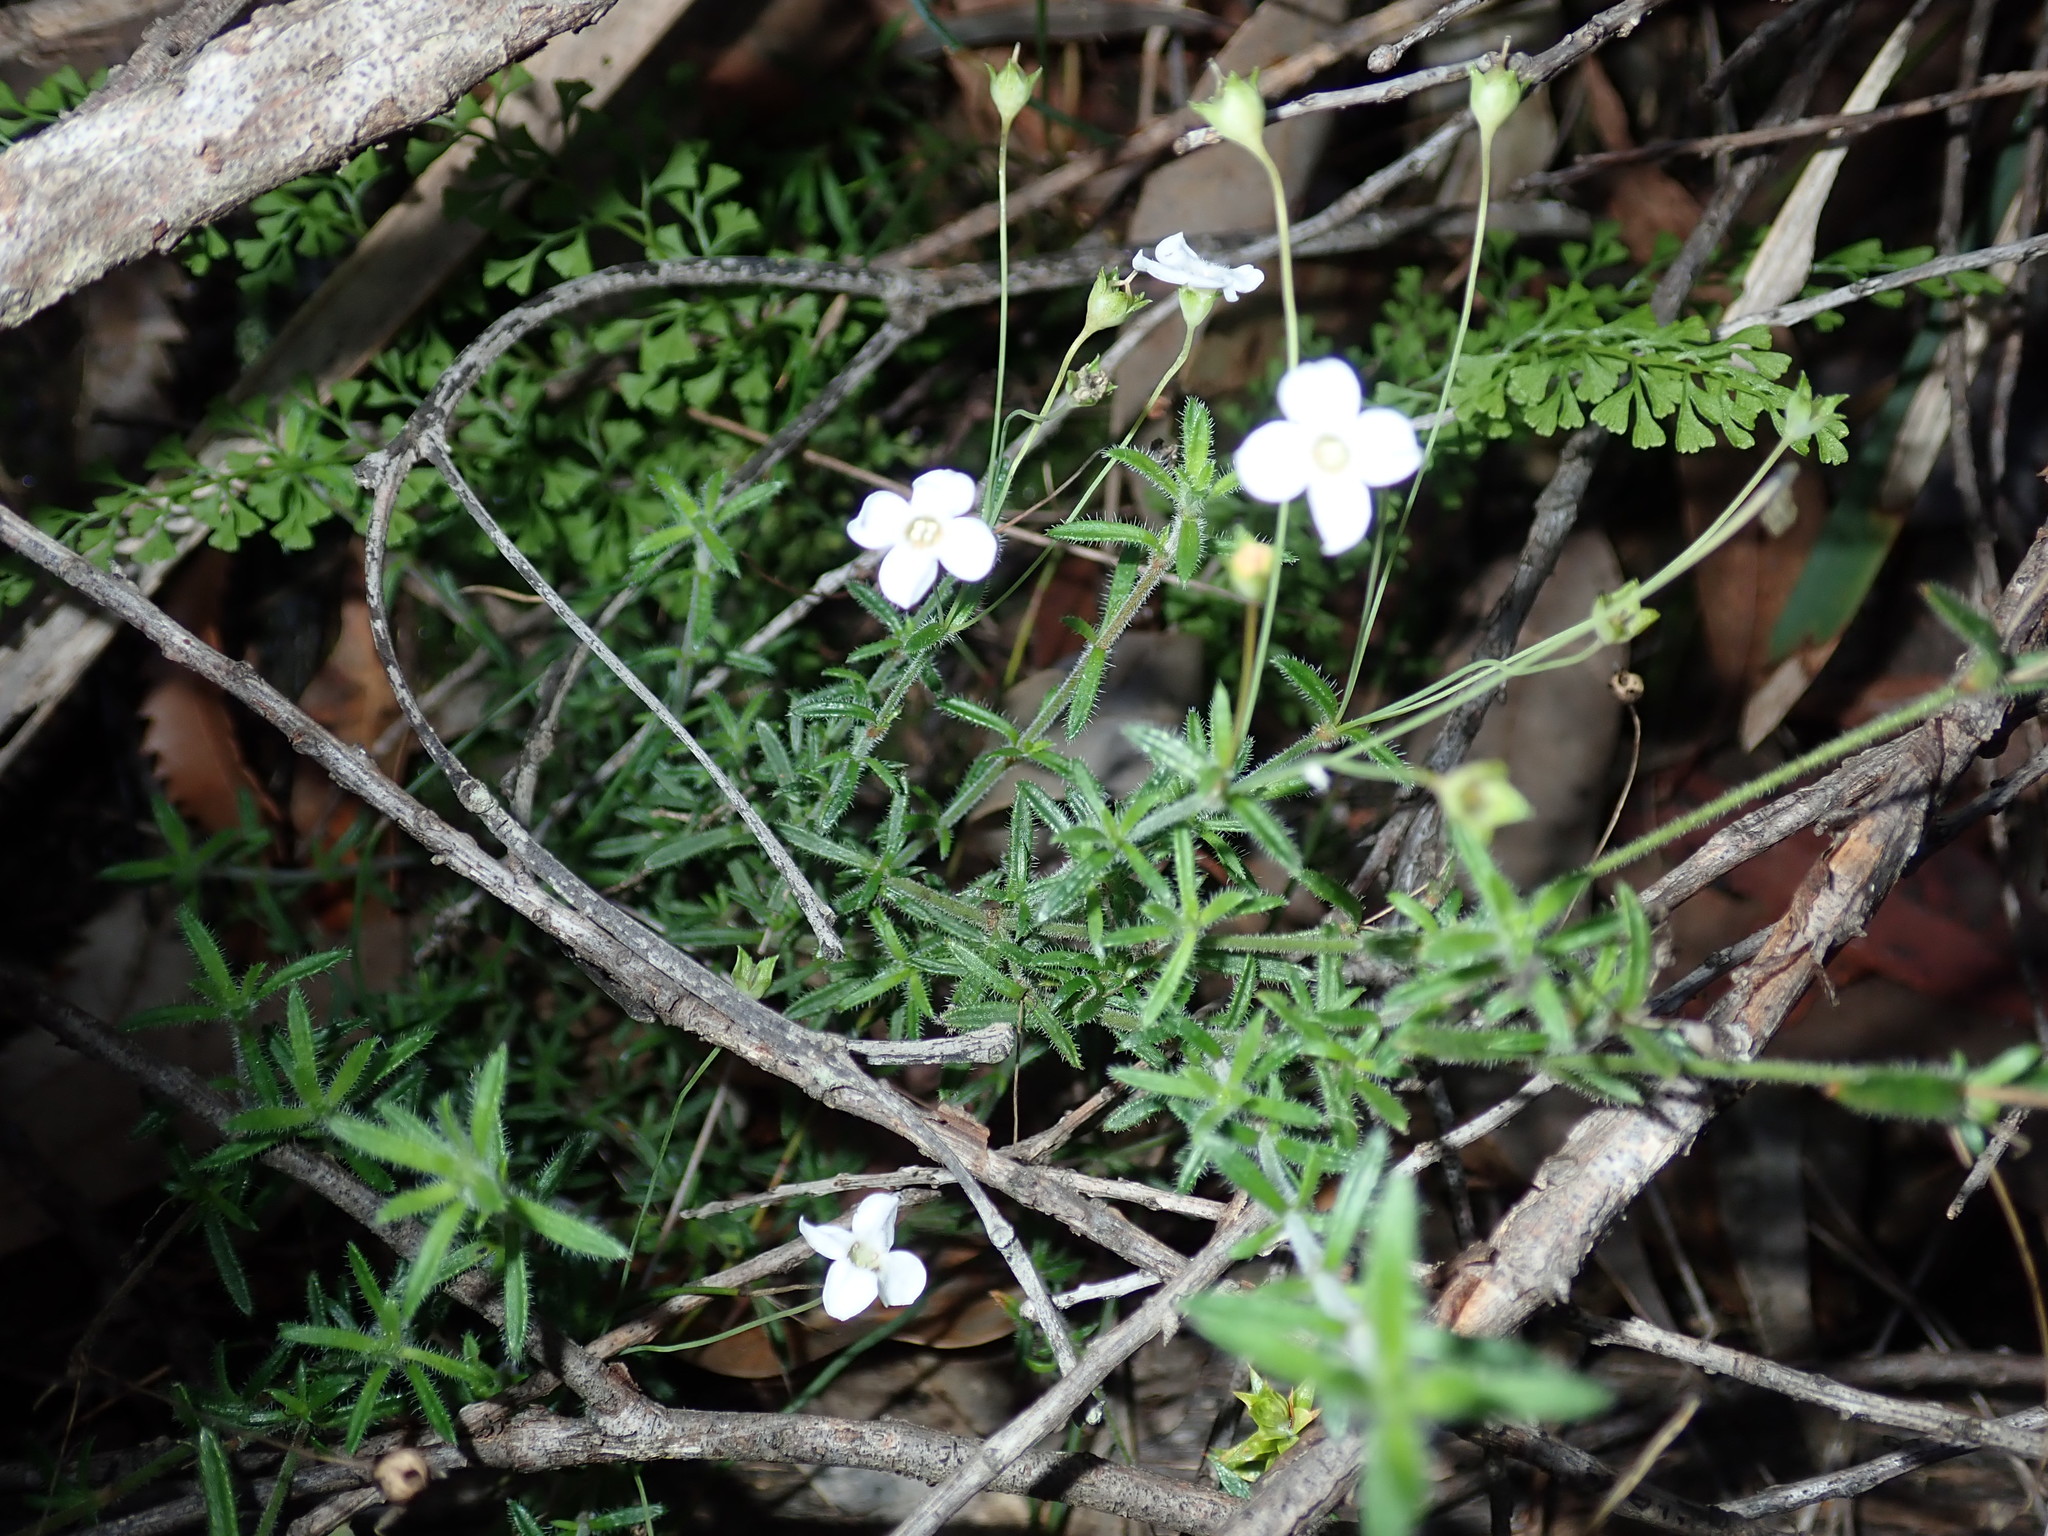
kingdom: Plantae
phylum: Tracheophyta
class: Magnoliopsida
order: Gentianales
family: Loganiaceae
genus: Mitrasacme
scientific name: Mitrasacme polymorpha
